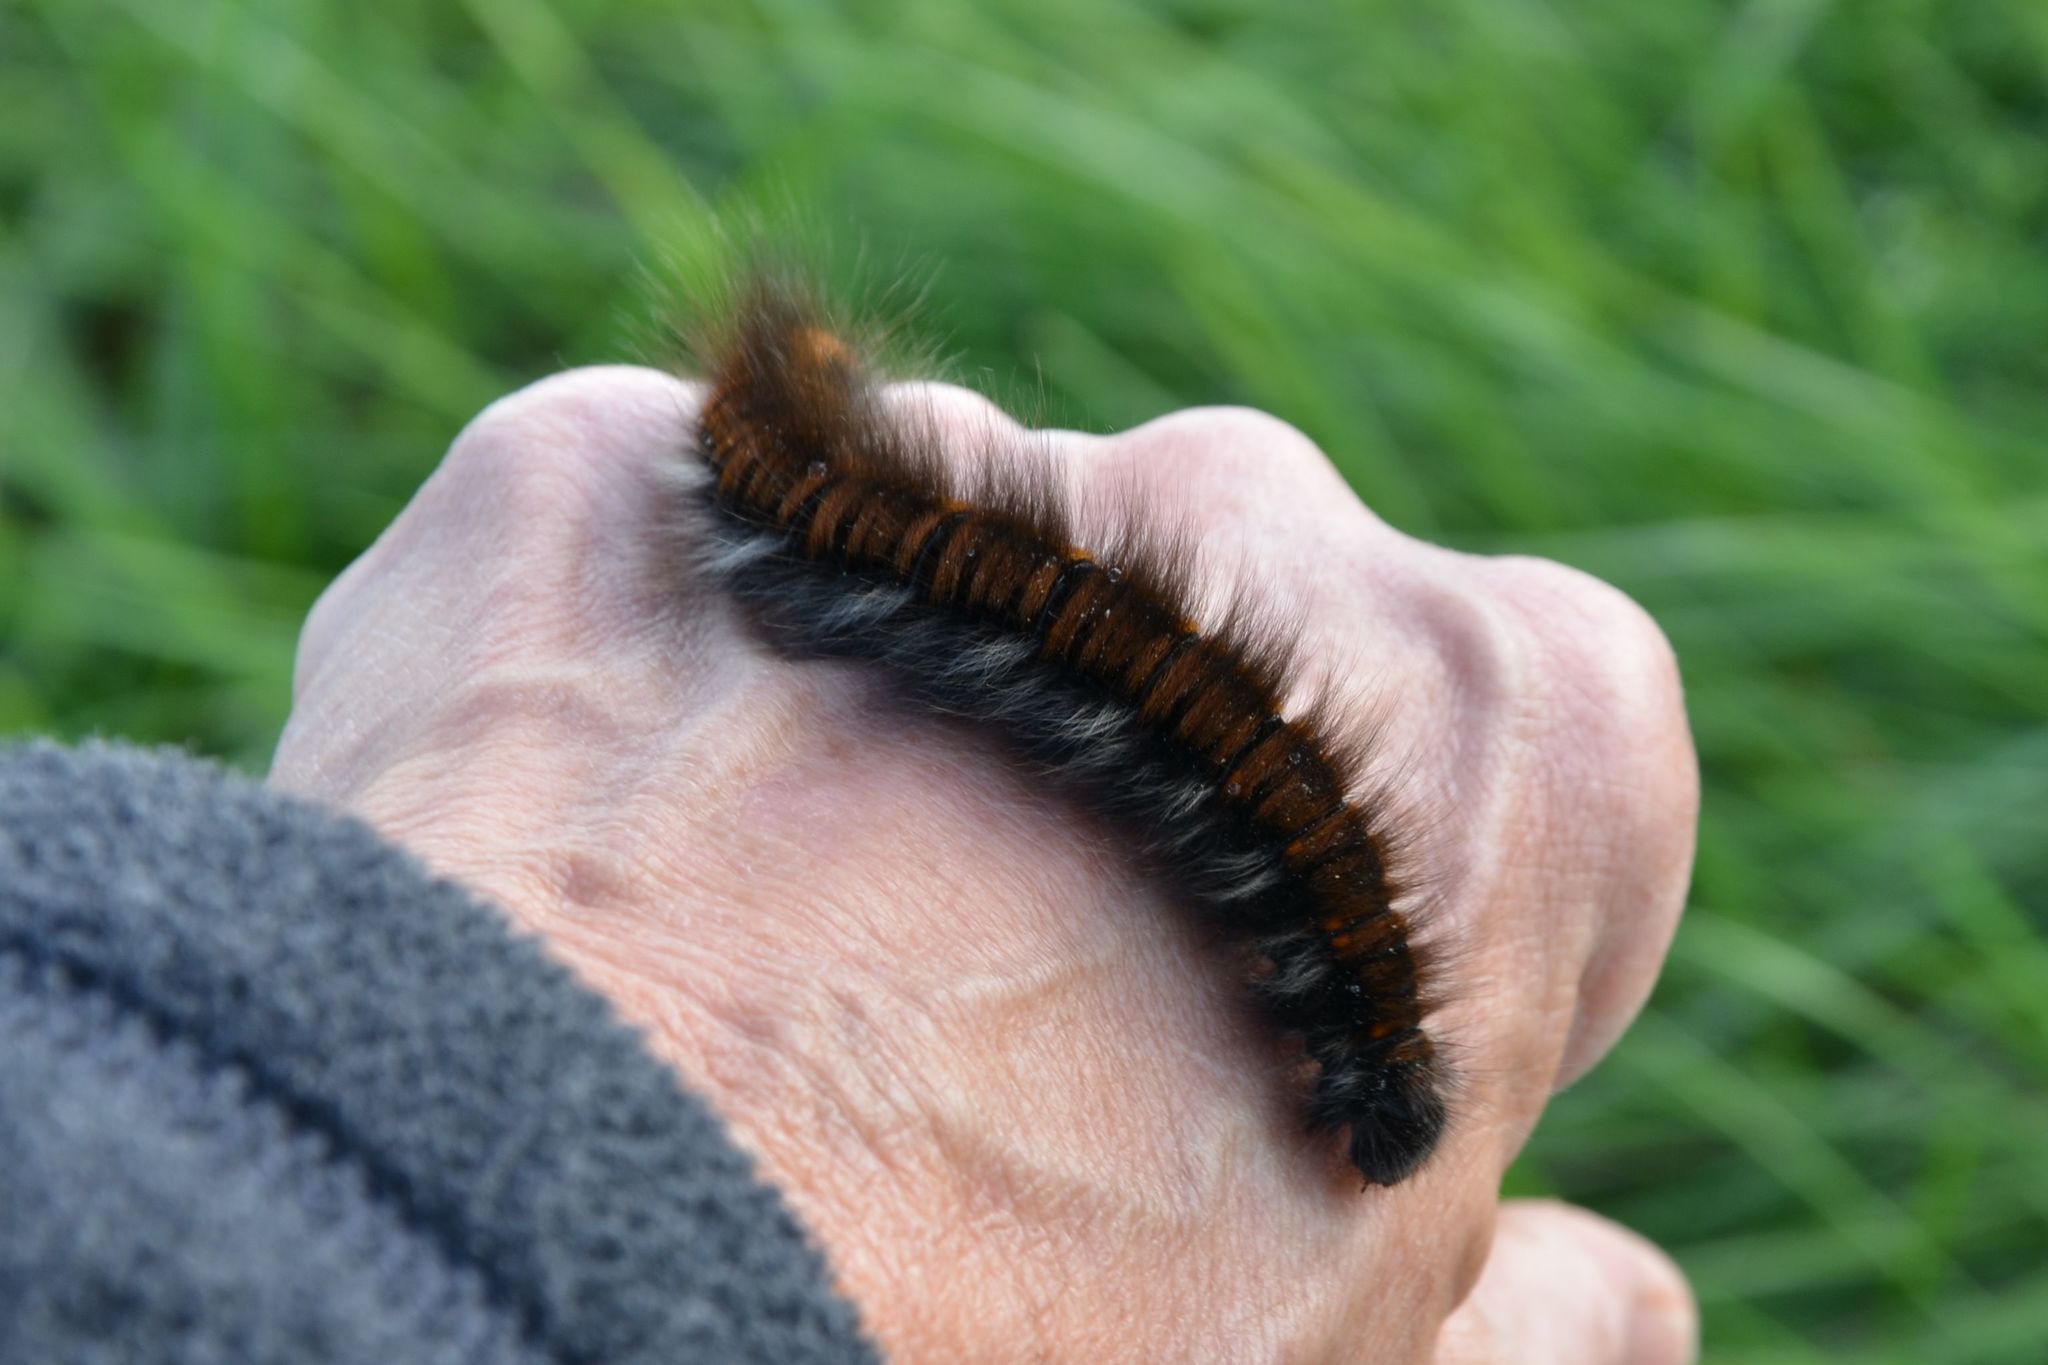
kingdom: Animalia
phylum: Arthropoda
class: Insecta
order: Lepidoptera
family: Lasiocampidae
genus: Macrothylacia
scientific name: Macrothylacia rubi
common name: Fox moth
